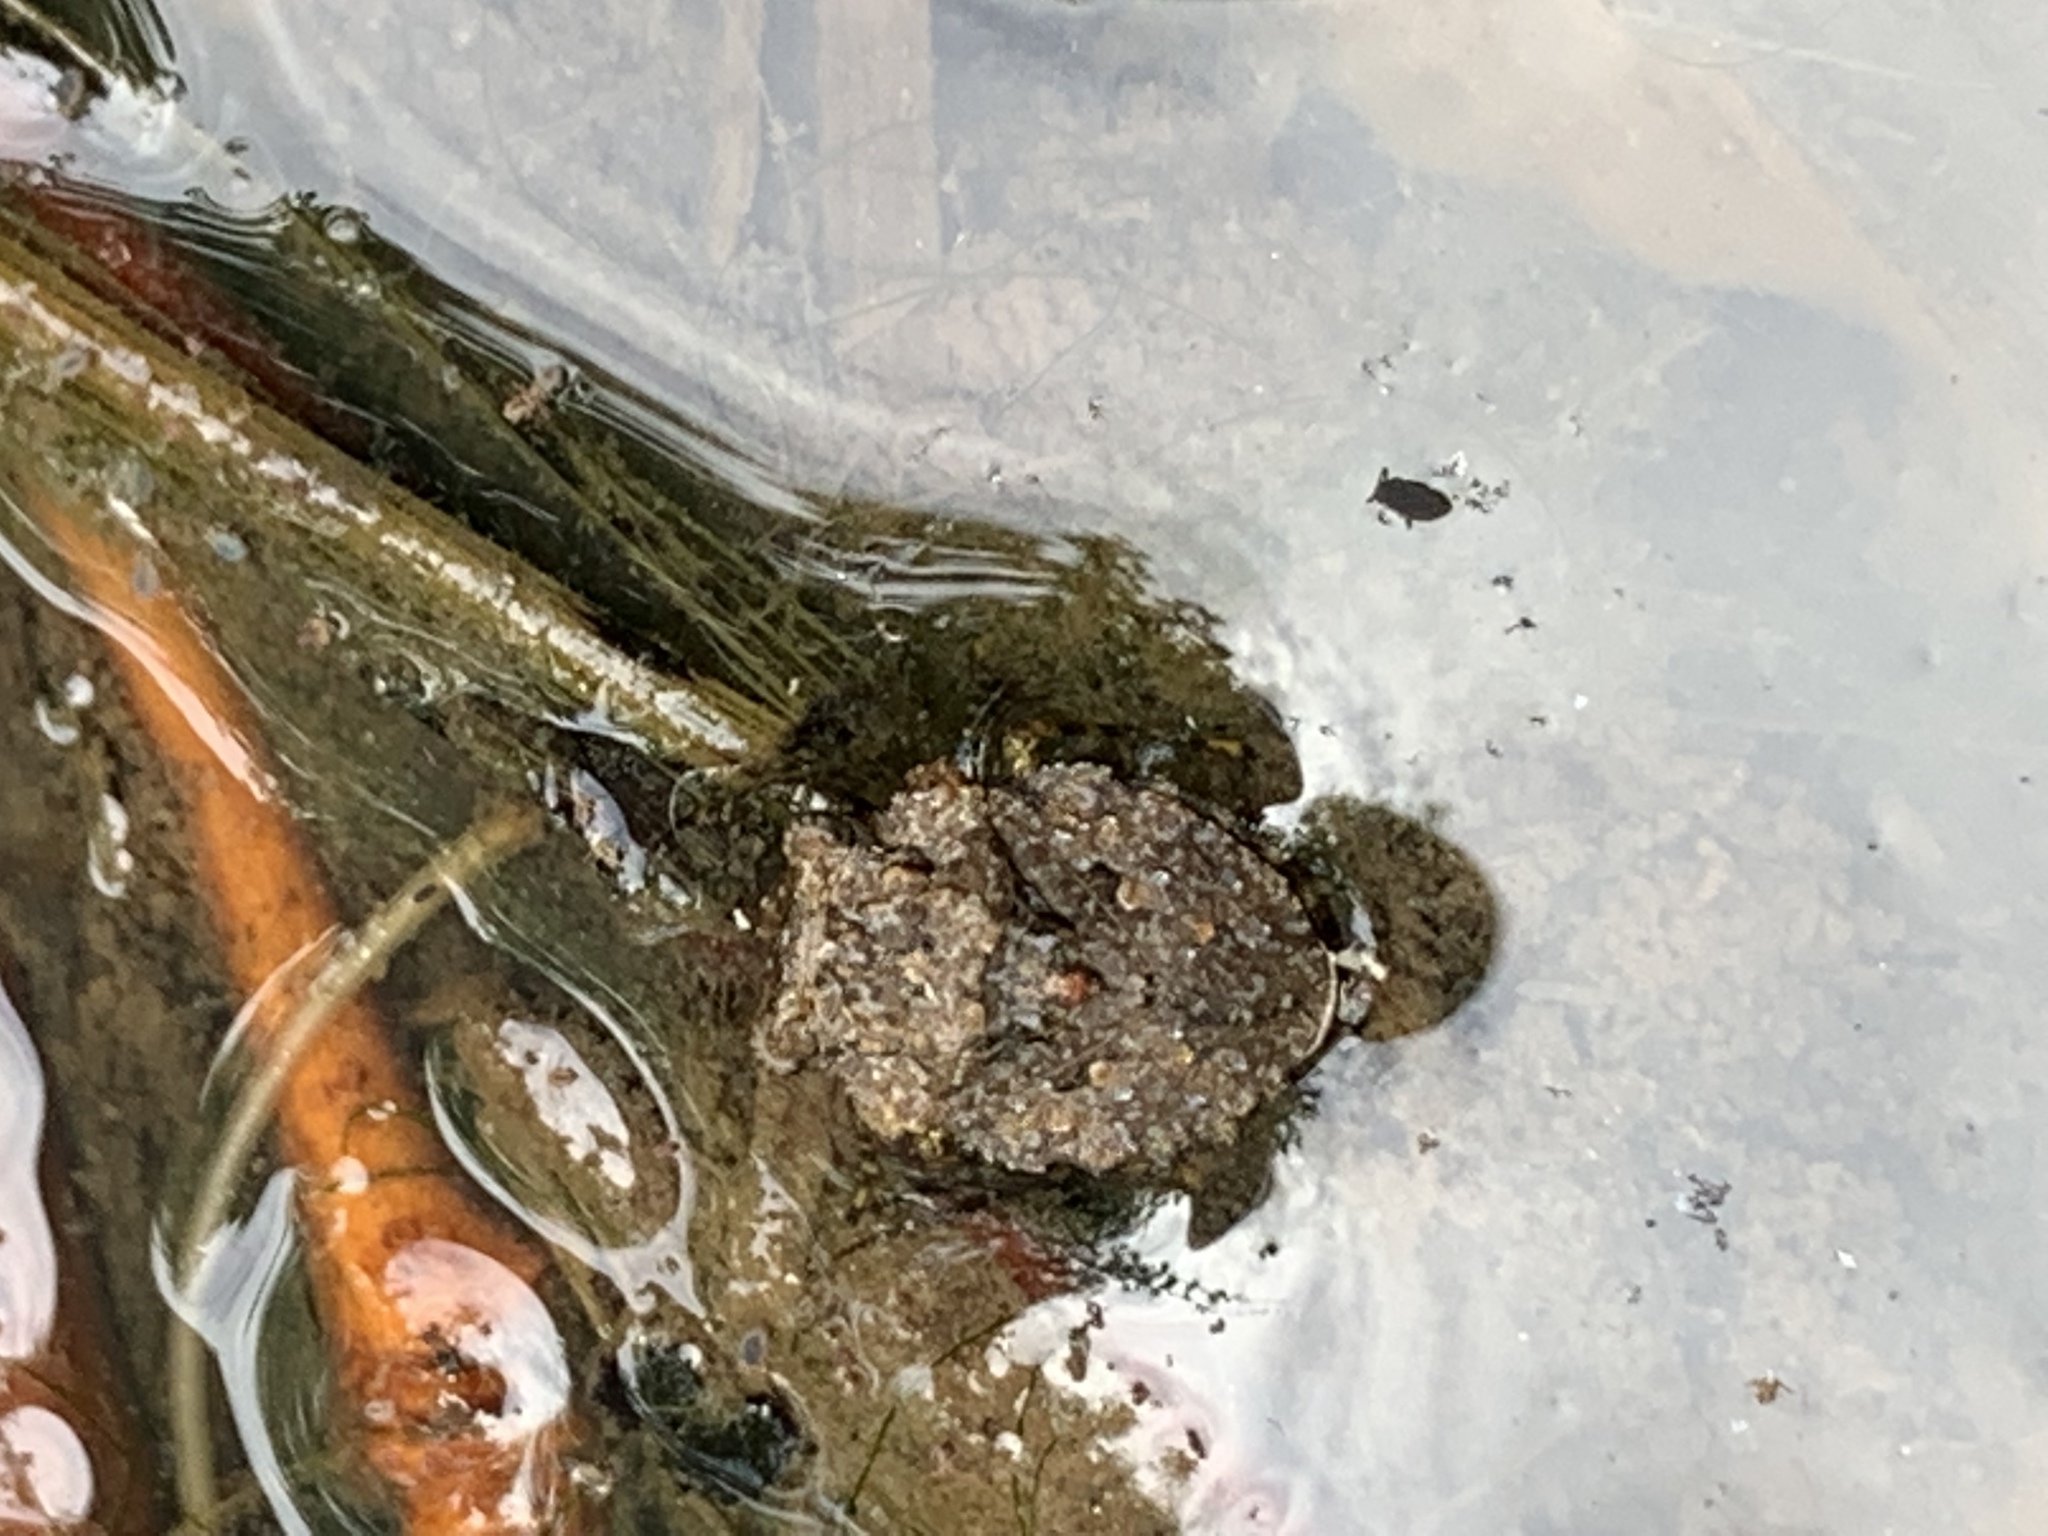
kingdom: Animalia
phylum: Arthropoda
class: Insecta
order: Hemiptera
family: Gelastocoridae
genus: Gelastocoris
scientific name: Gelastocoris oculatus
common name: Toad bug
